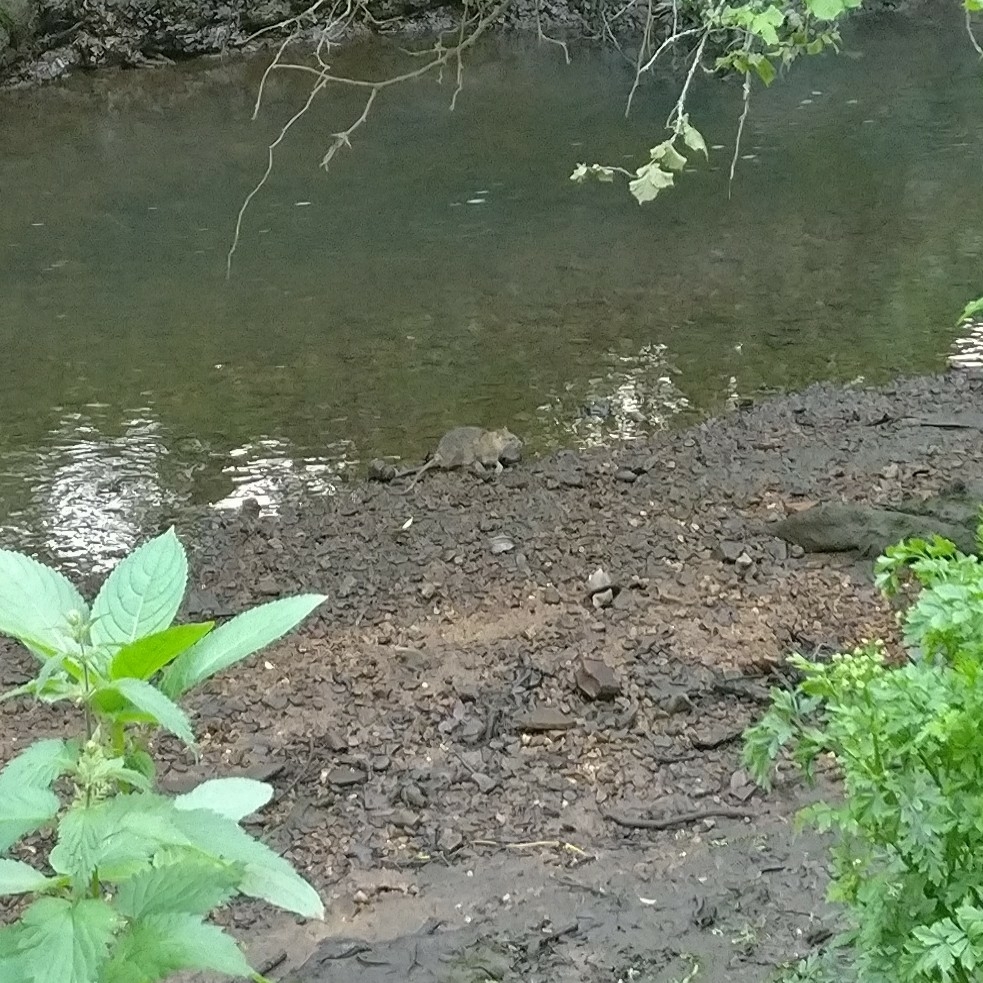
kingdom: Animalia
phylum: Chordata
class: Mammalia
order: Rodentia
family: Muridae
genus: Rattus
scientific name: Rattus norvegicus
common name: Brown rat
